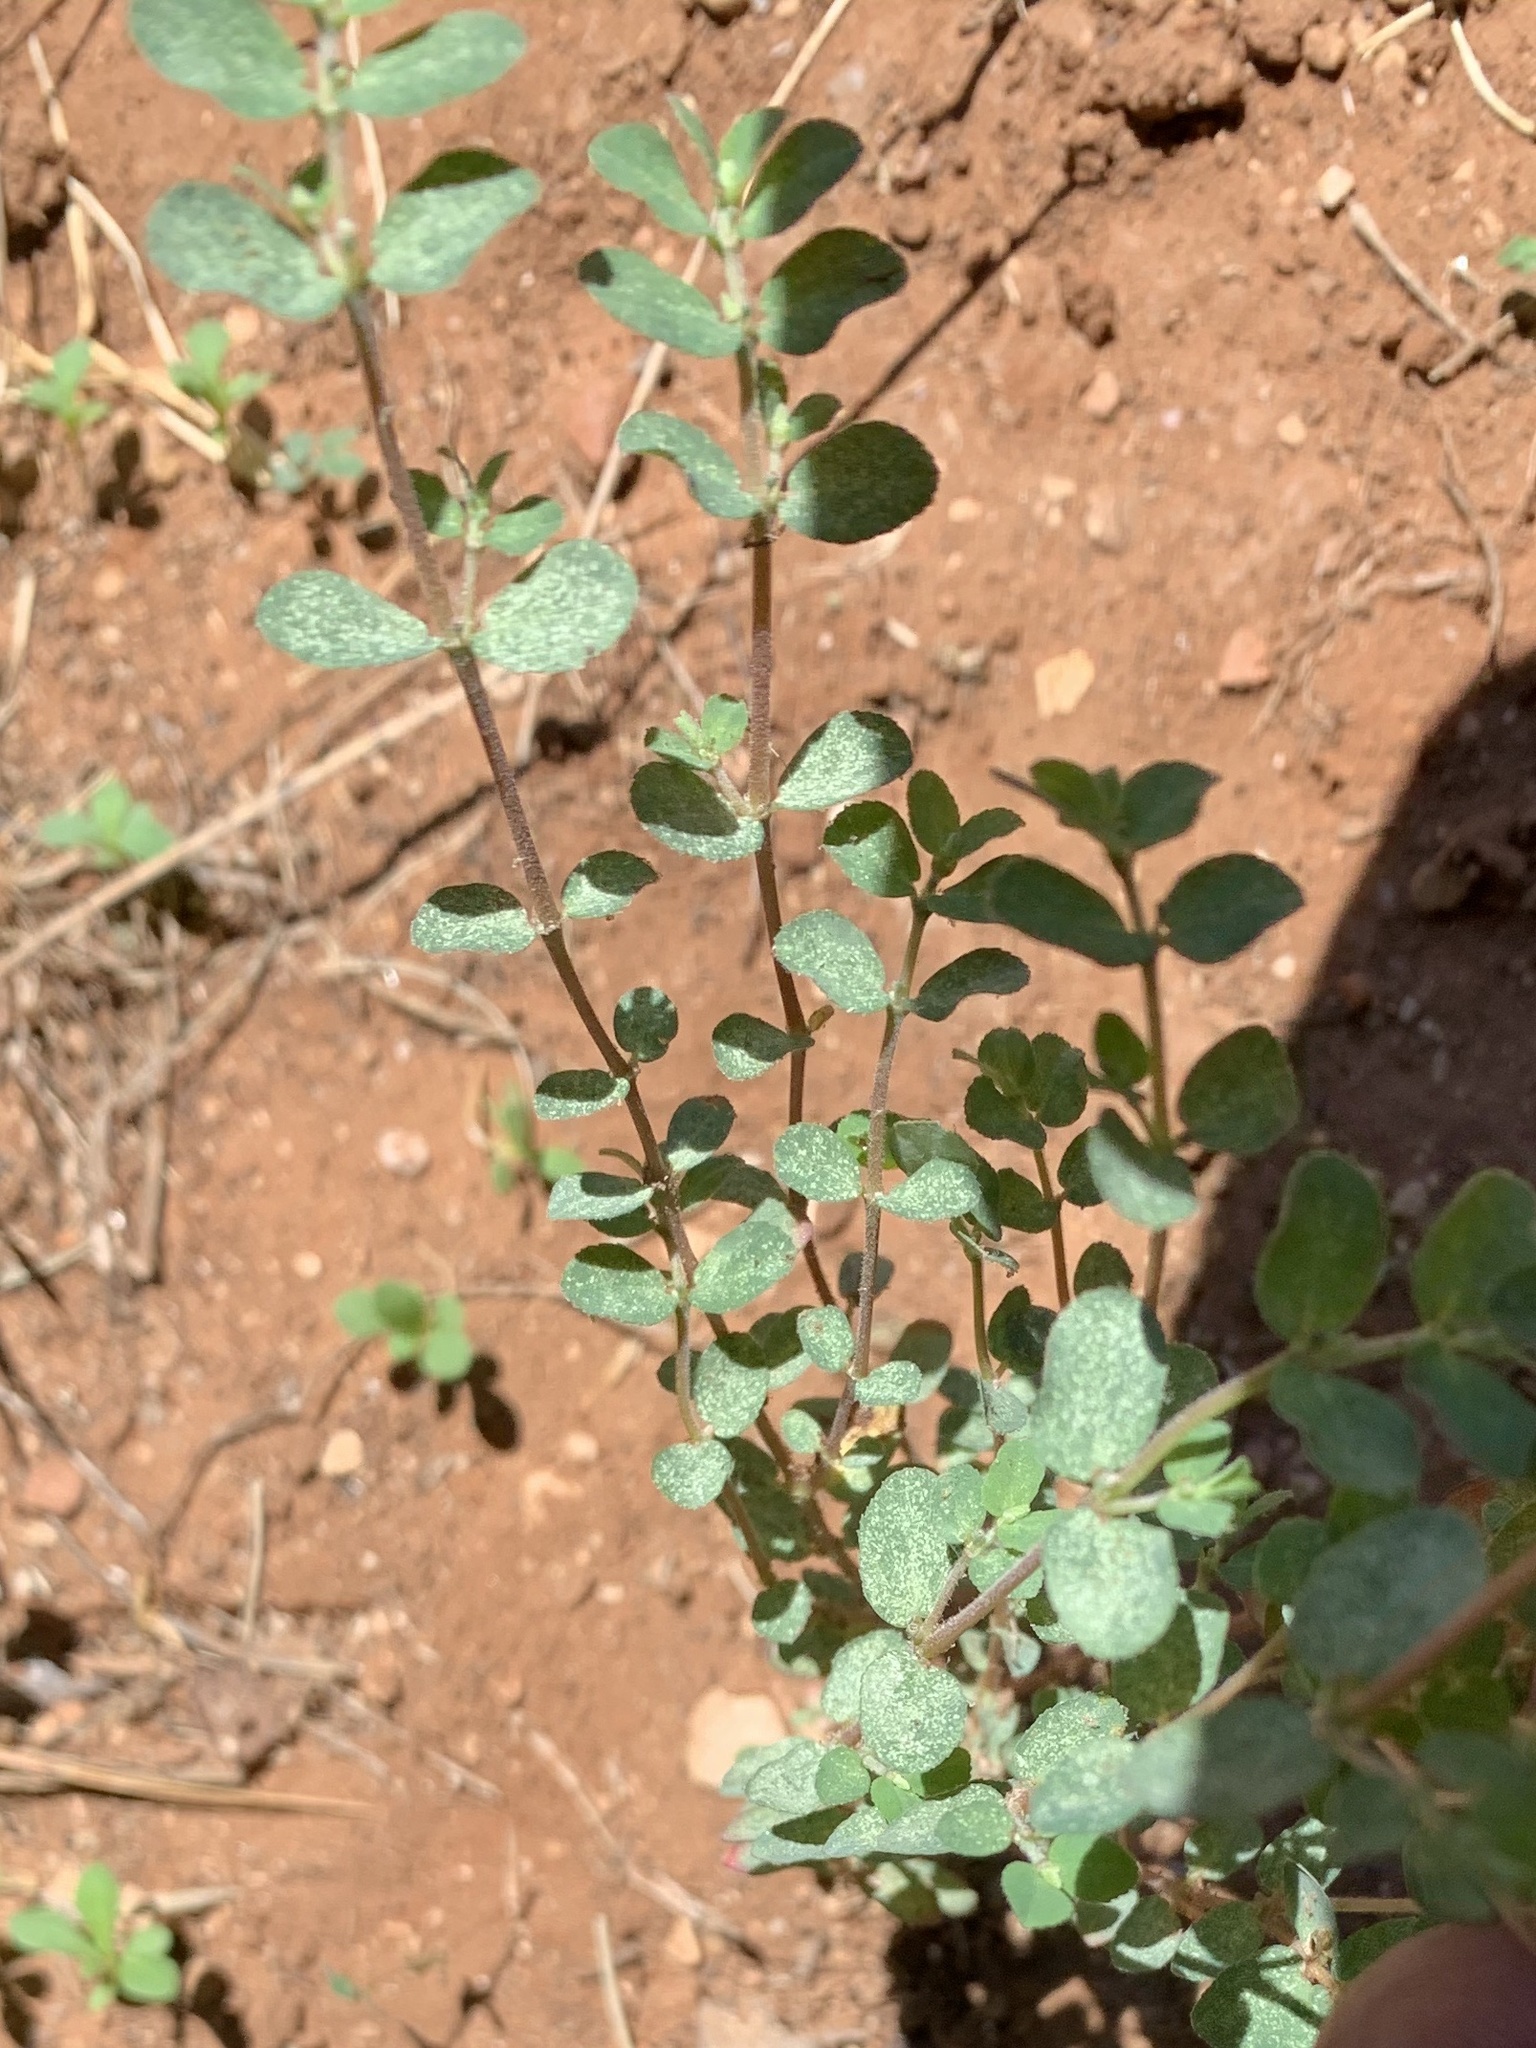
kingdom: Plantae
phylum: Tracheophyta
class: Magnoliopsida
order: Malpighiales
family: Euphorbiaceae
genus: Euphorbia
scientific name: Euphorbia prostrata
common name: Prostrate sandmat
